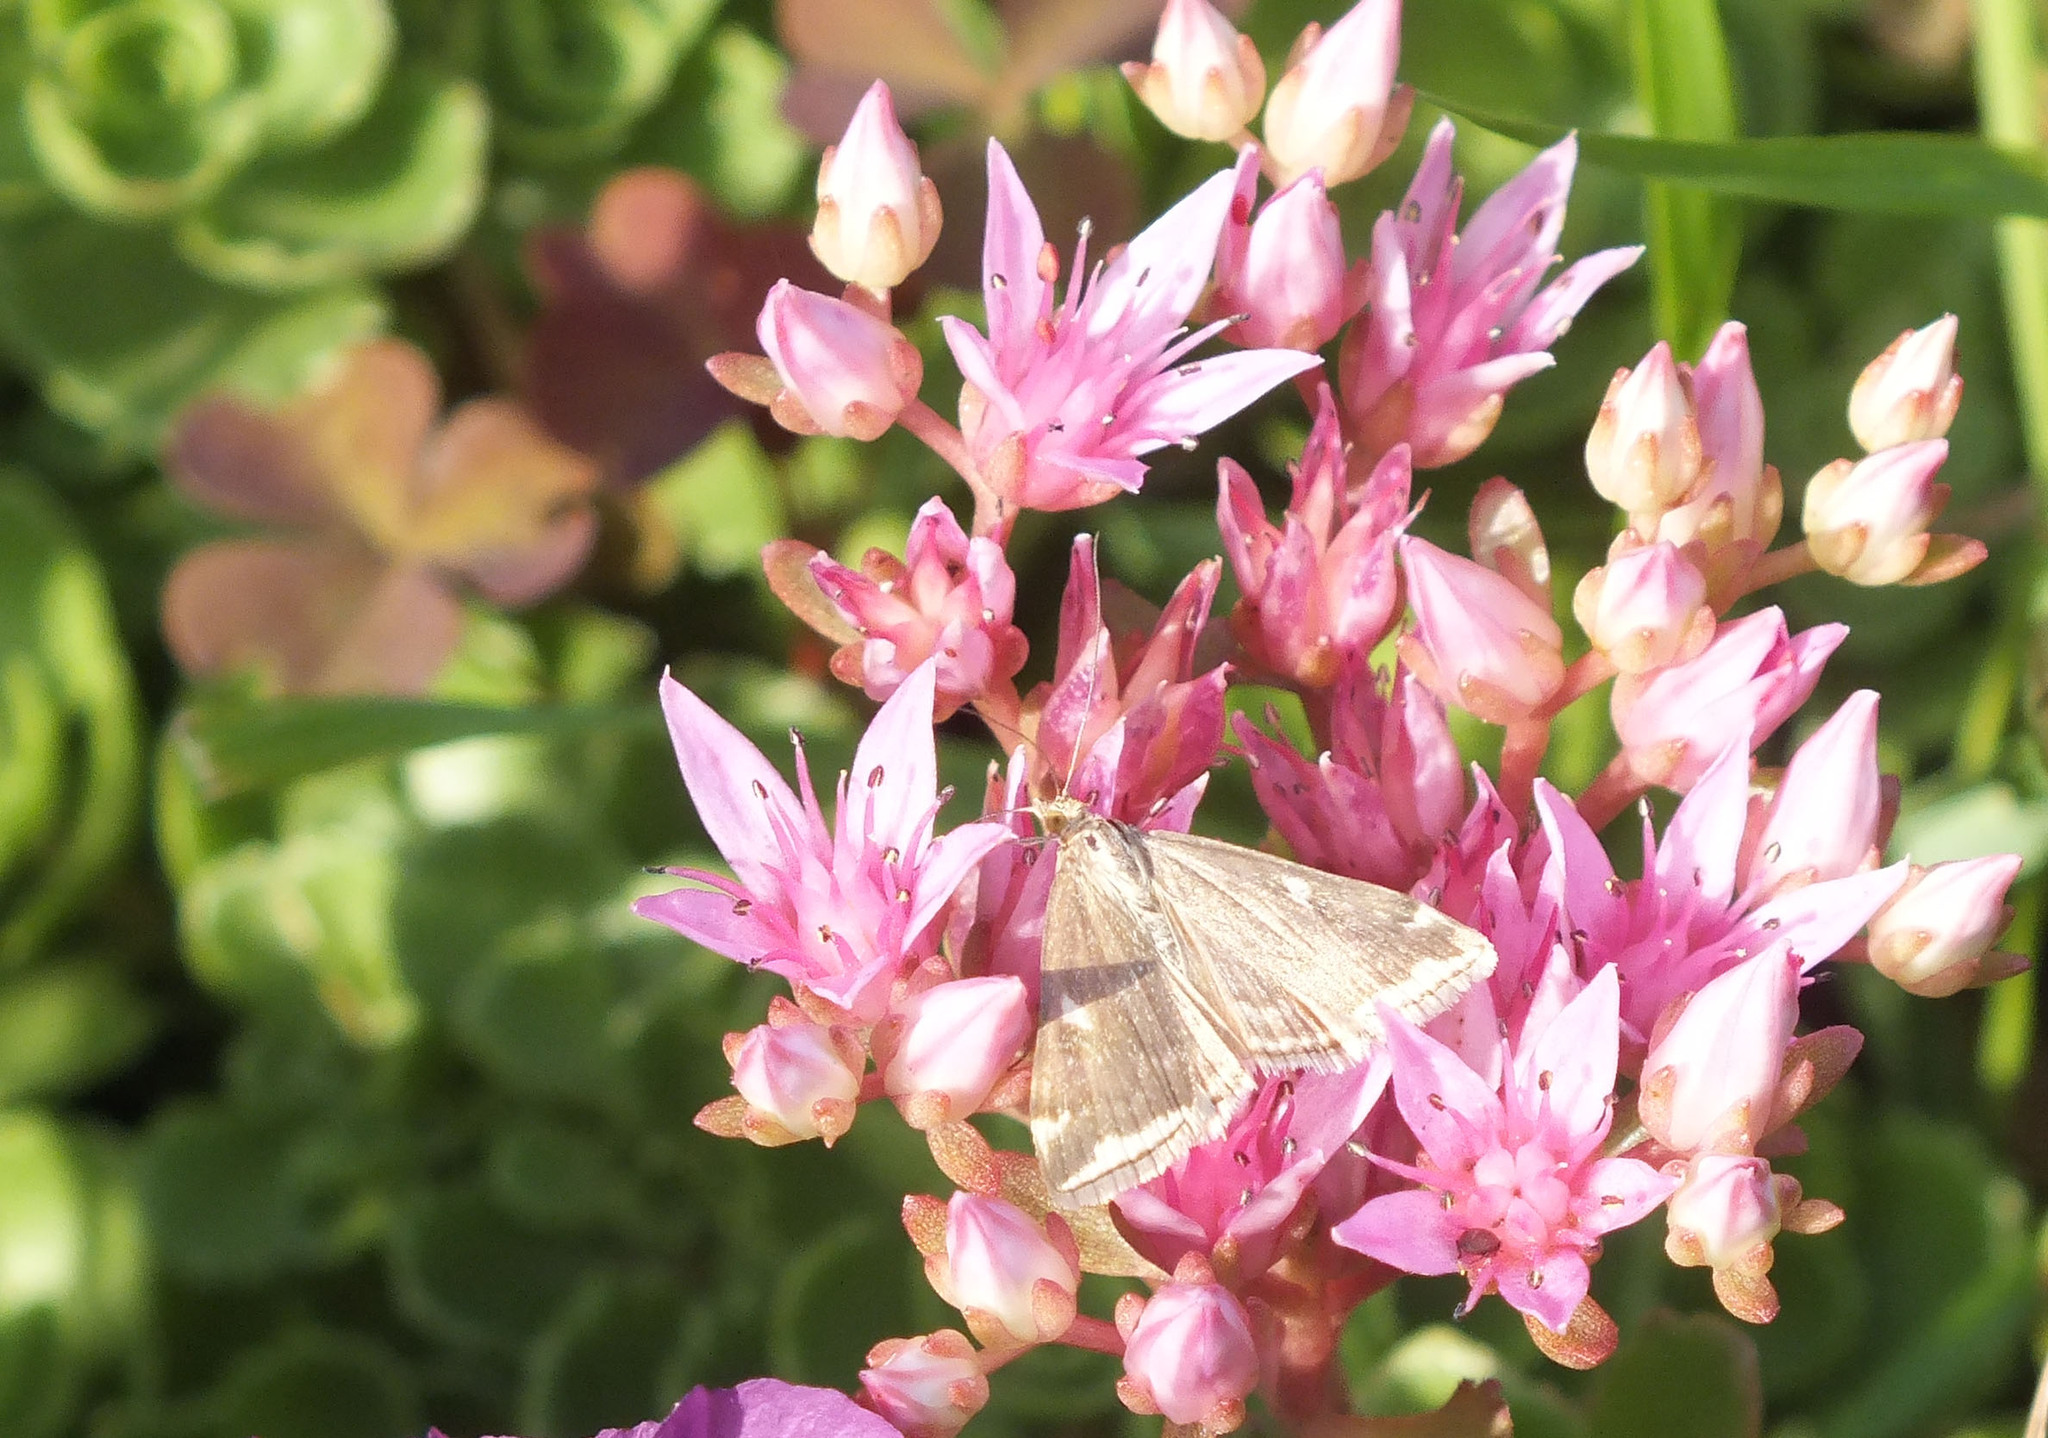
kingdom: Animalia
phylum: Arthropoda
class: Insecta
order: Lepidoptera
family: Crambidae
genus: Loxostege
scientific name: Loxostege sticticalis
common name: Crambid moth
